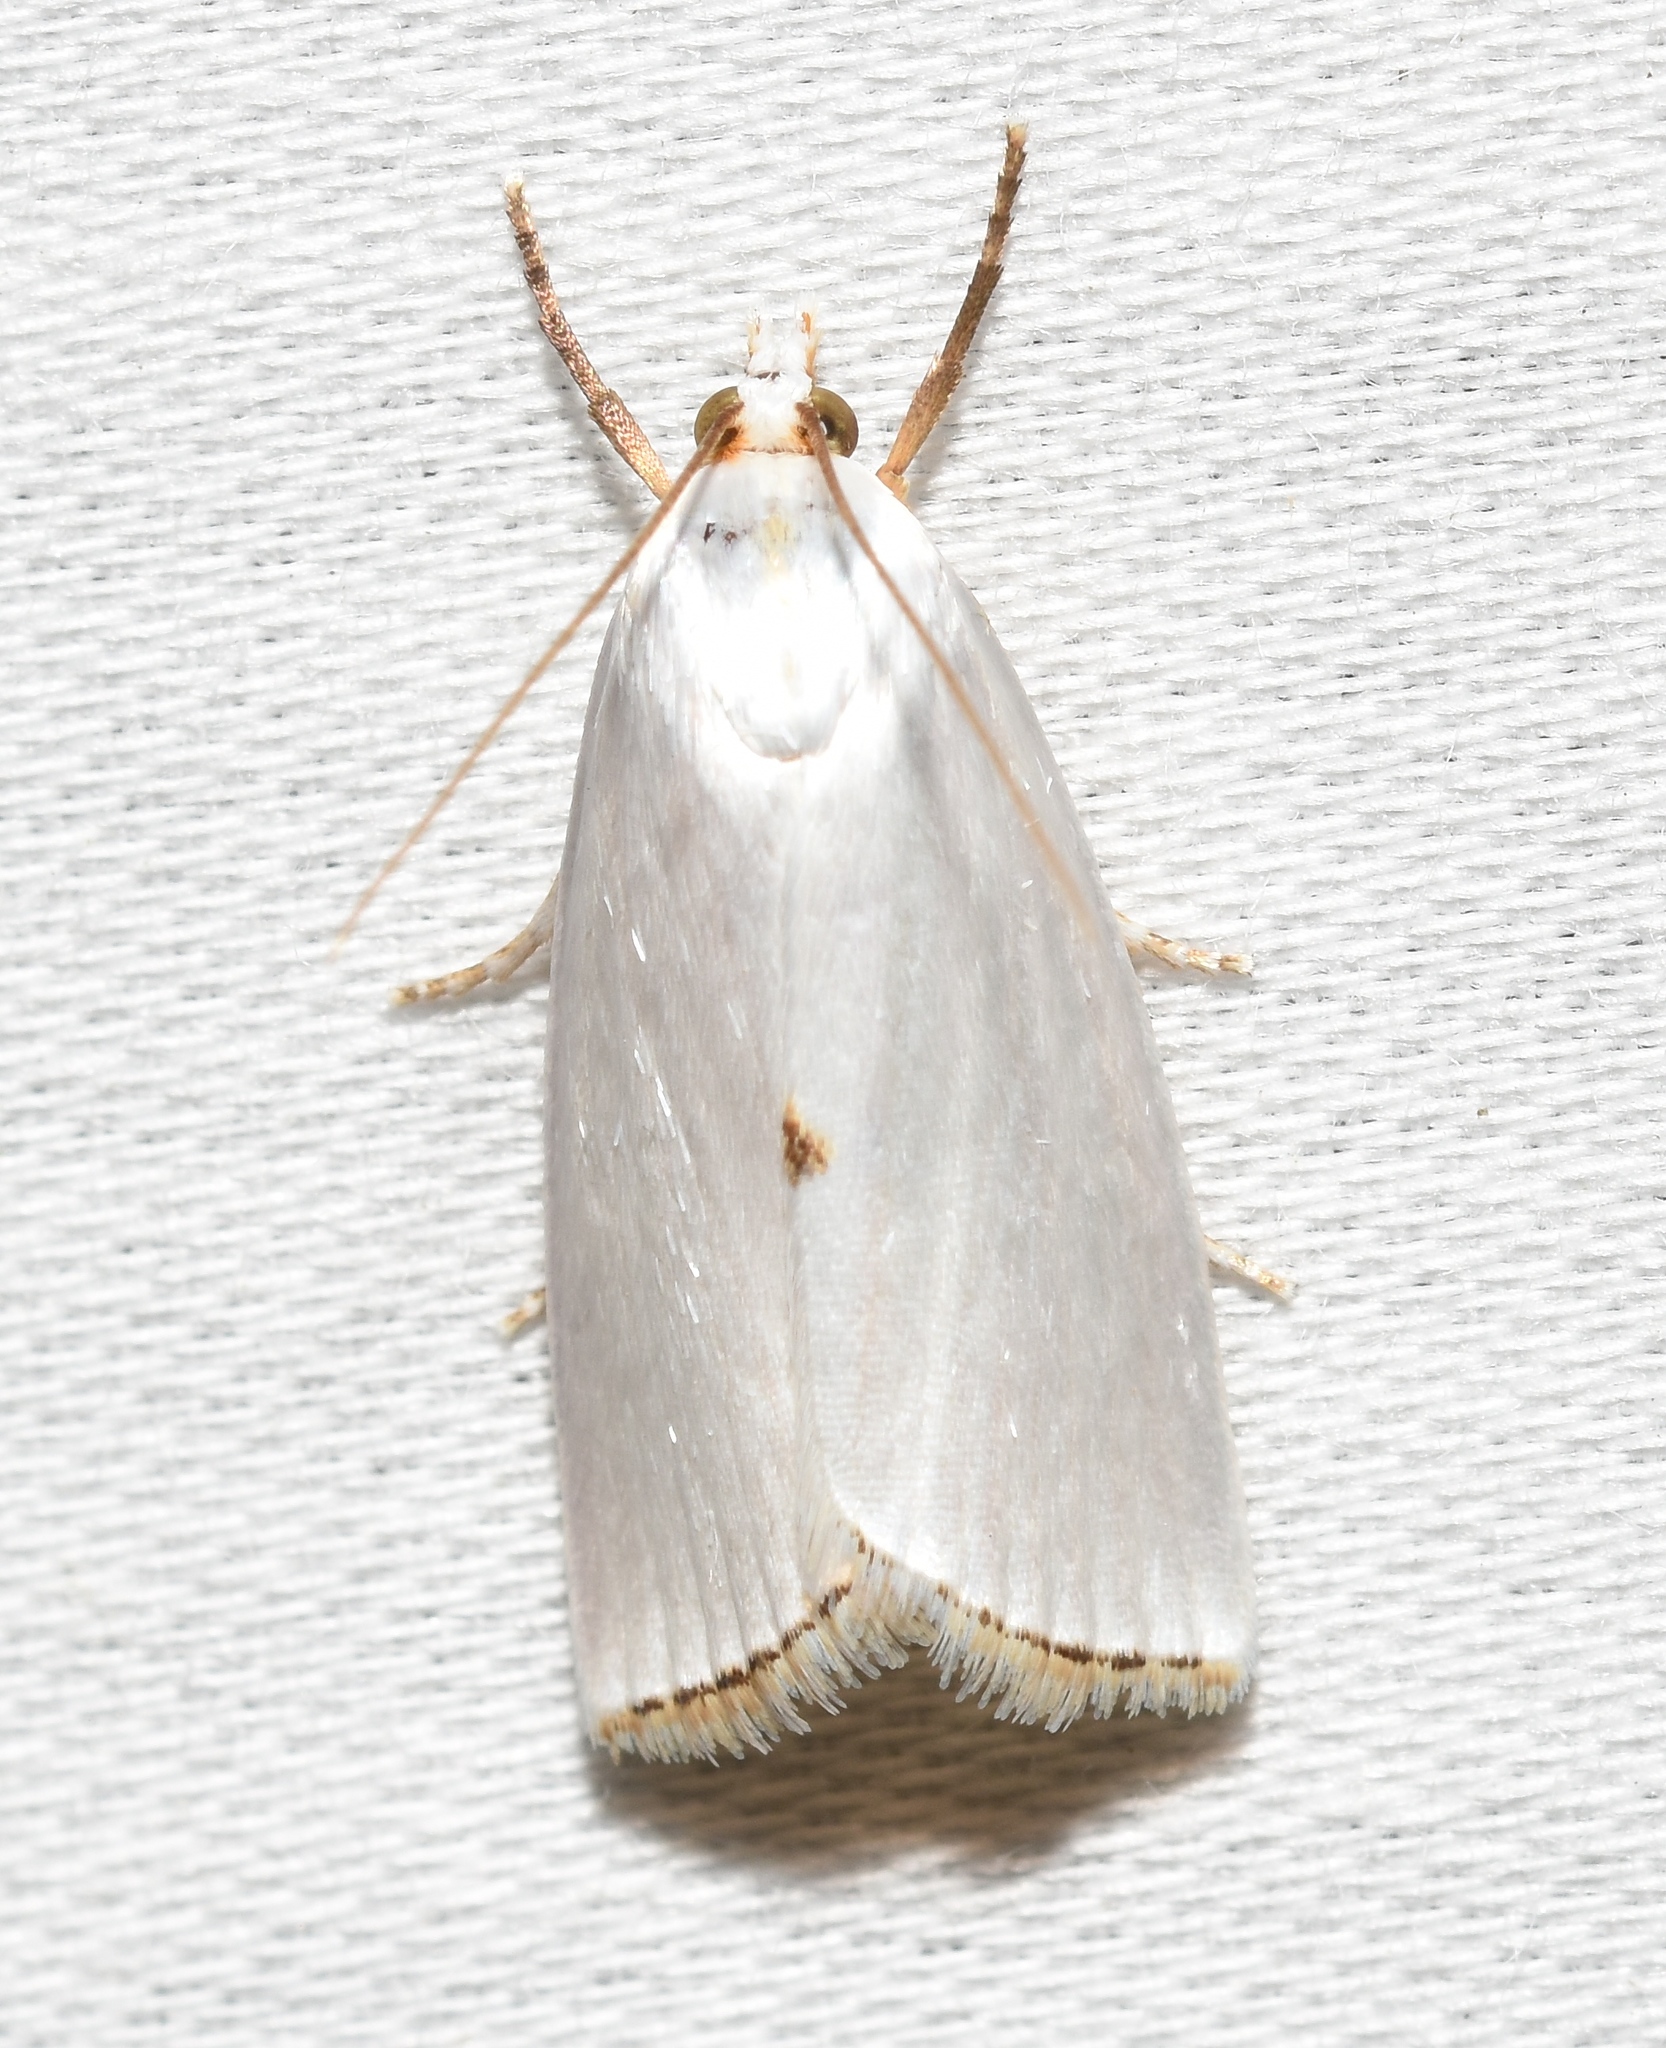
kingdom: Animalia
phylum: Arthropoda
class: Insecta
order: Lepidoptera
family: Crambidae
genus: Argyria
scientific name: Argyria nivalis
